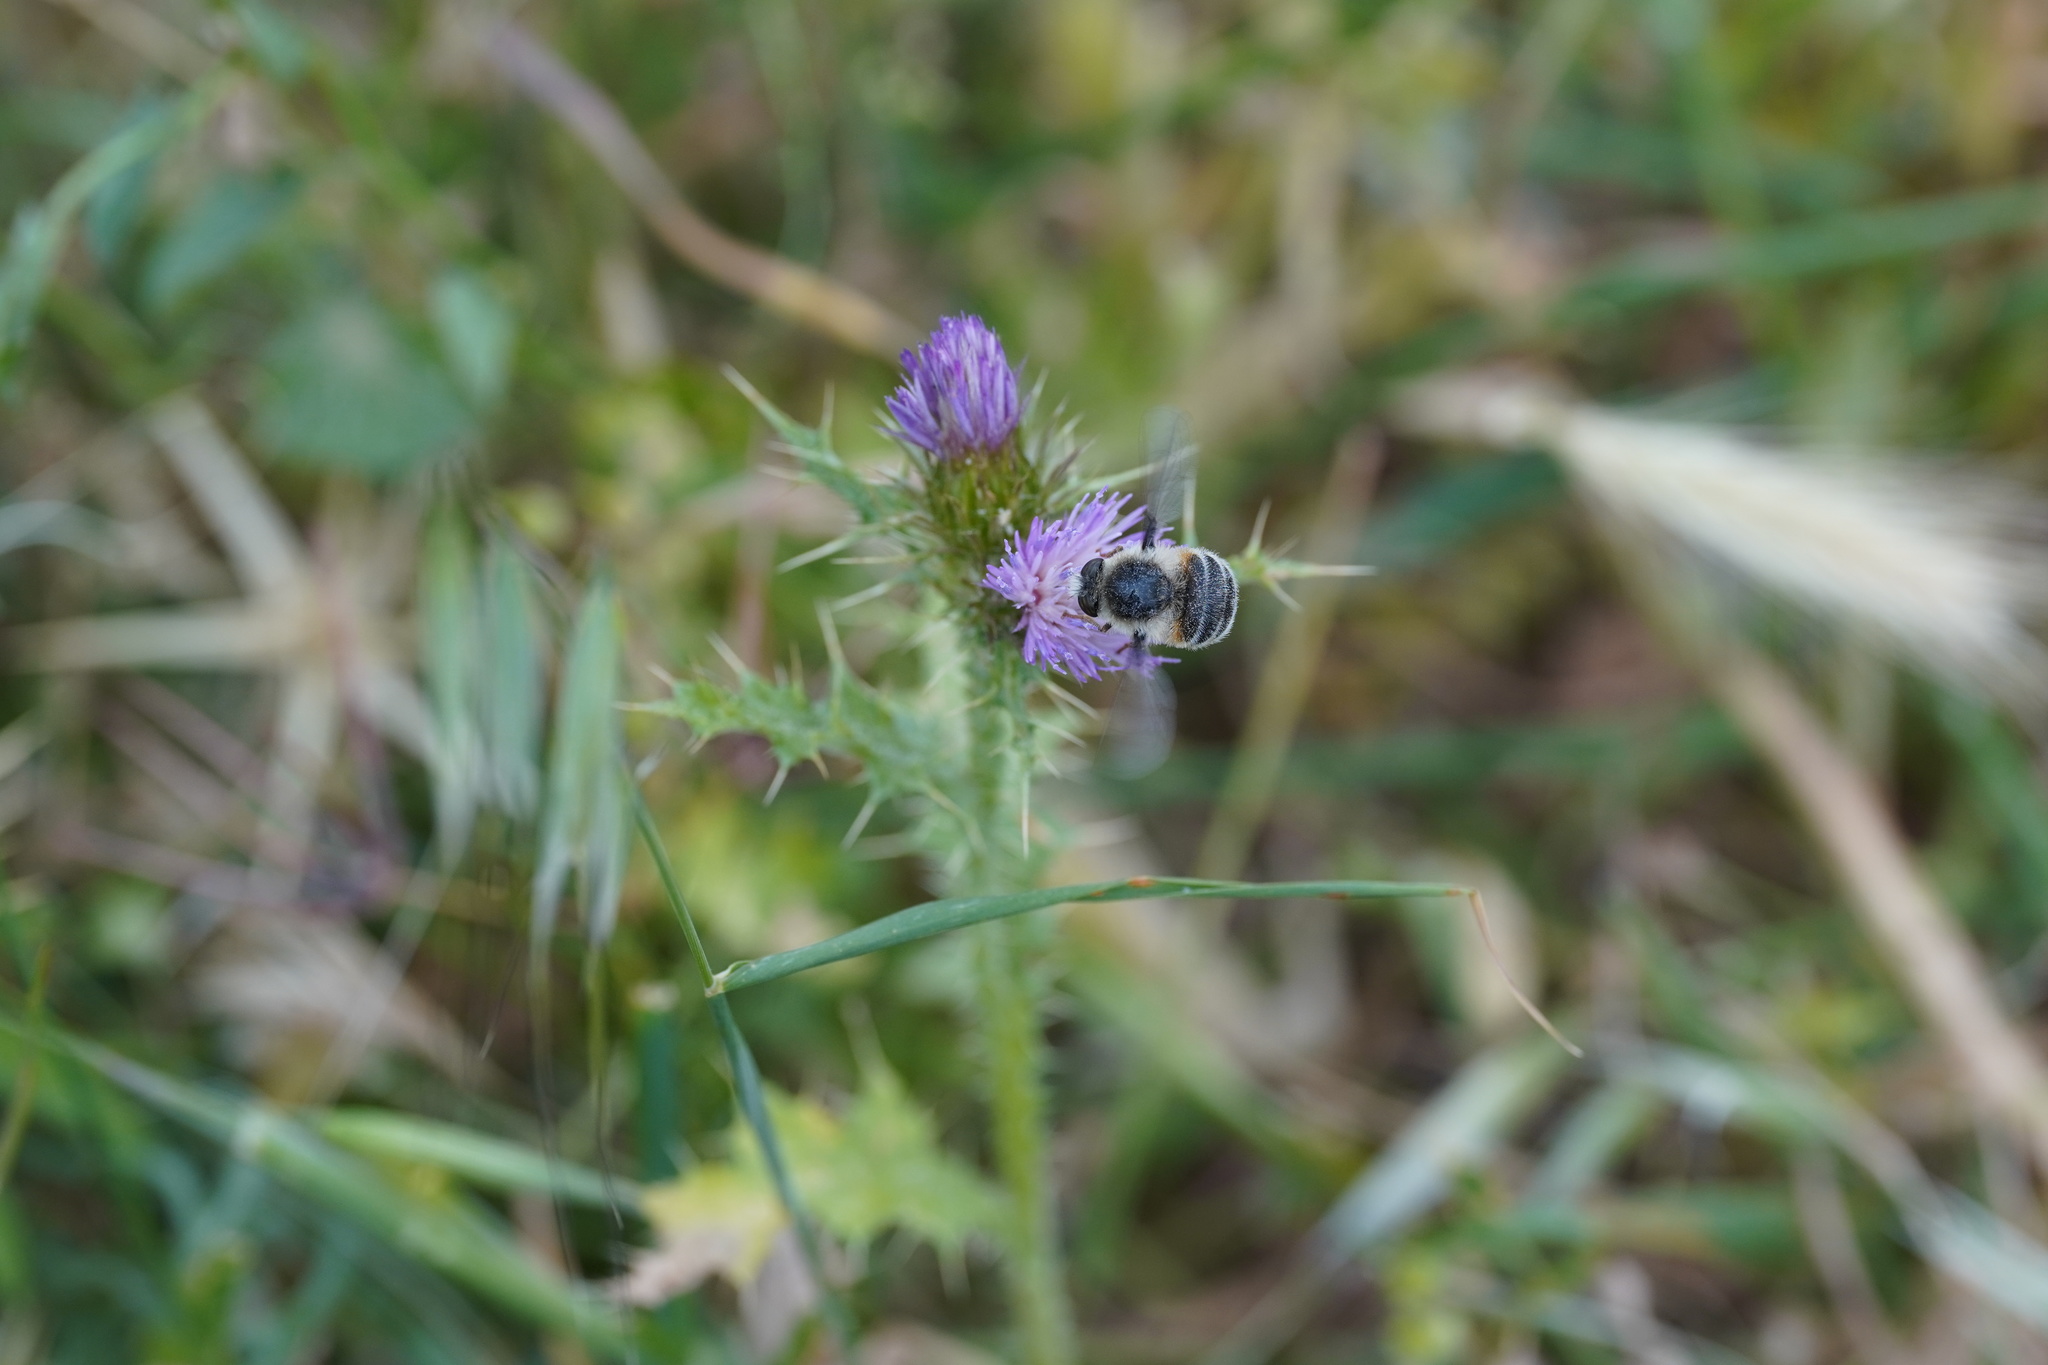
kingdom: Animalia
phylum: Arthropoda
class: Insecta
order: Diptera
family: Nemestrinidae
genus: Fallenia
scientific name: Fallenia fasciata
